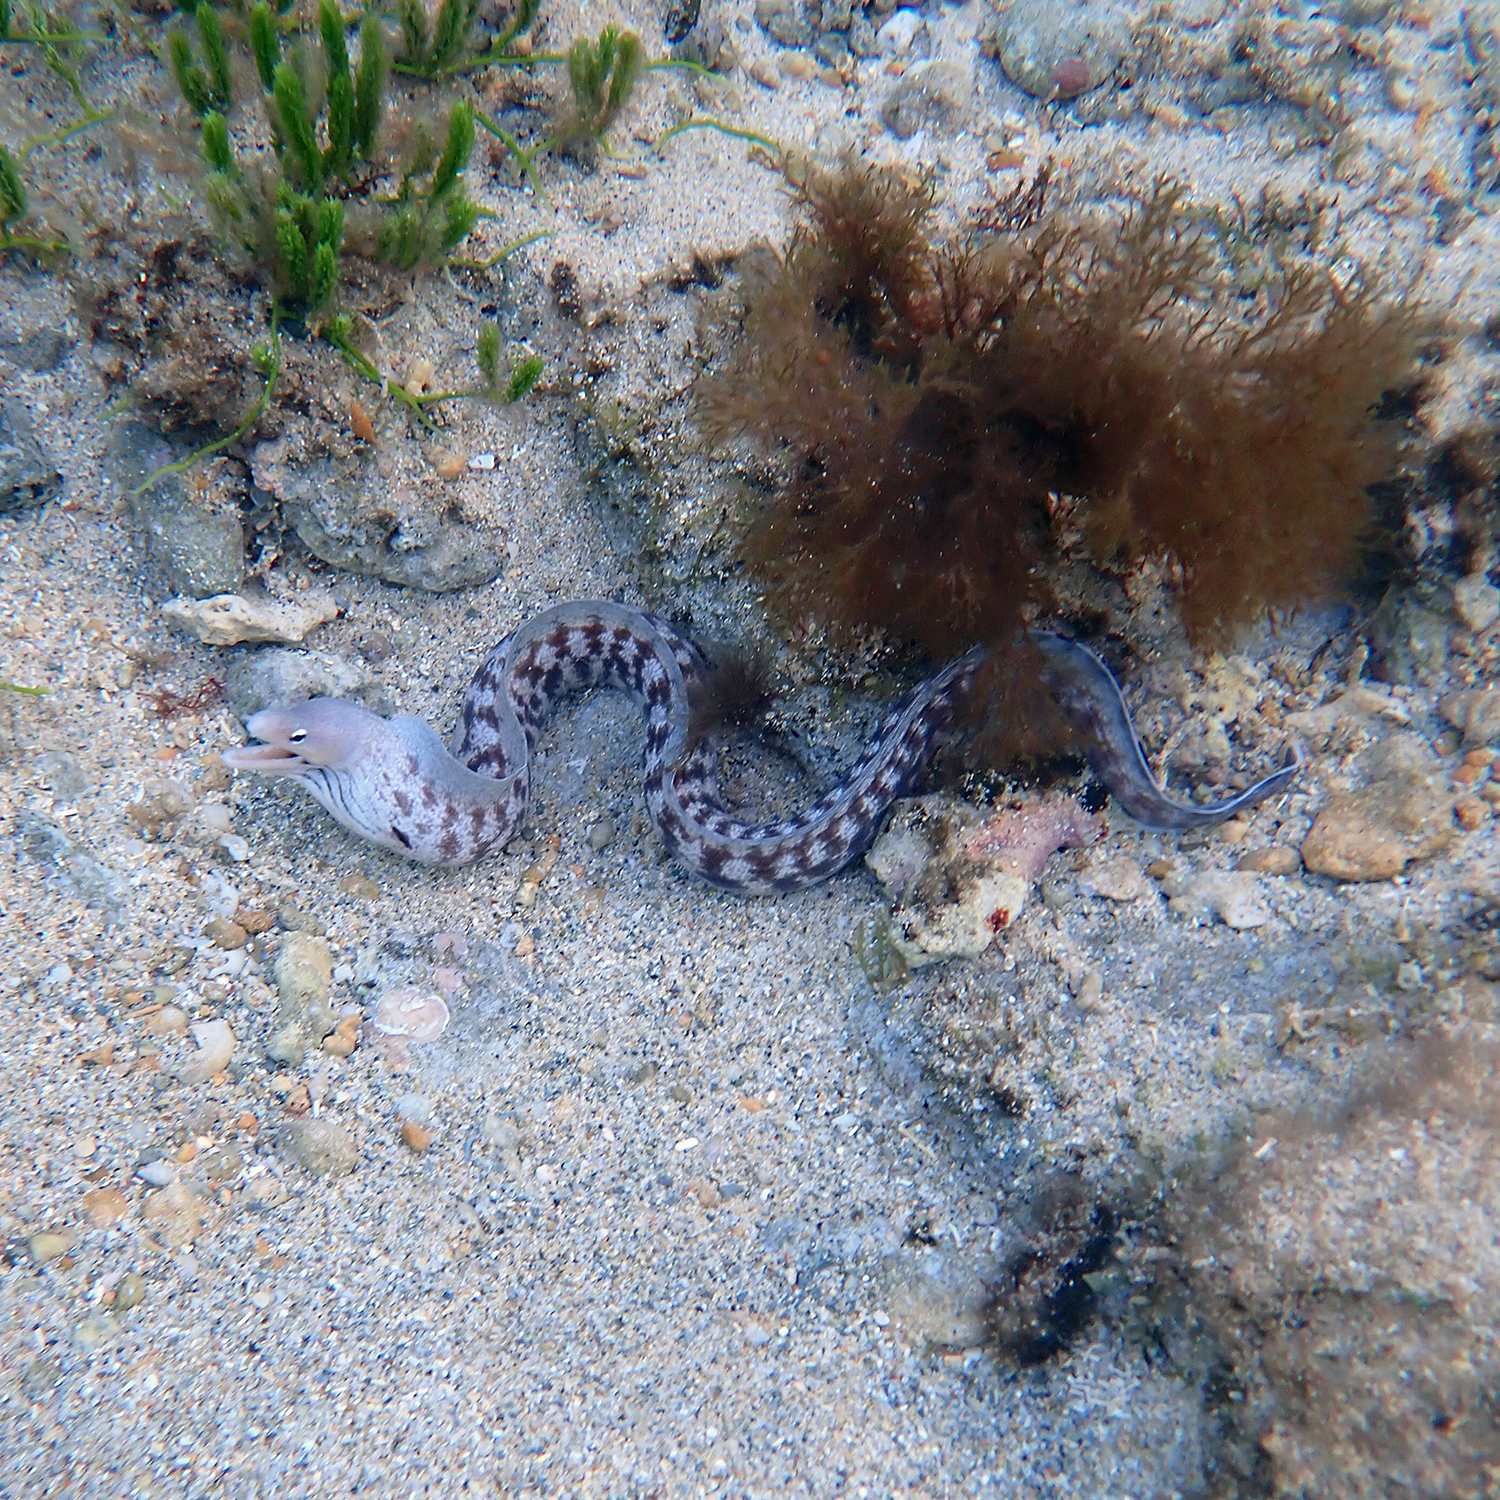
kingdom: Animalia
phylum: Chordata
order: Anguilliformes
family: Muraenidae
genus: Gymnothorax
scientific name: Gymnothorax nubilus
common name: Grey moray
